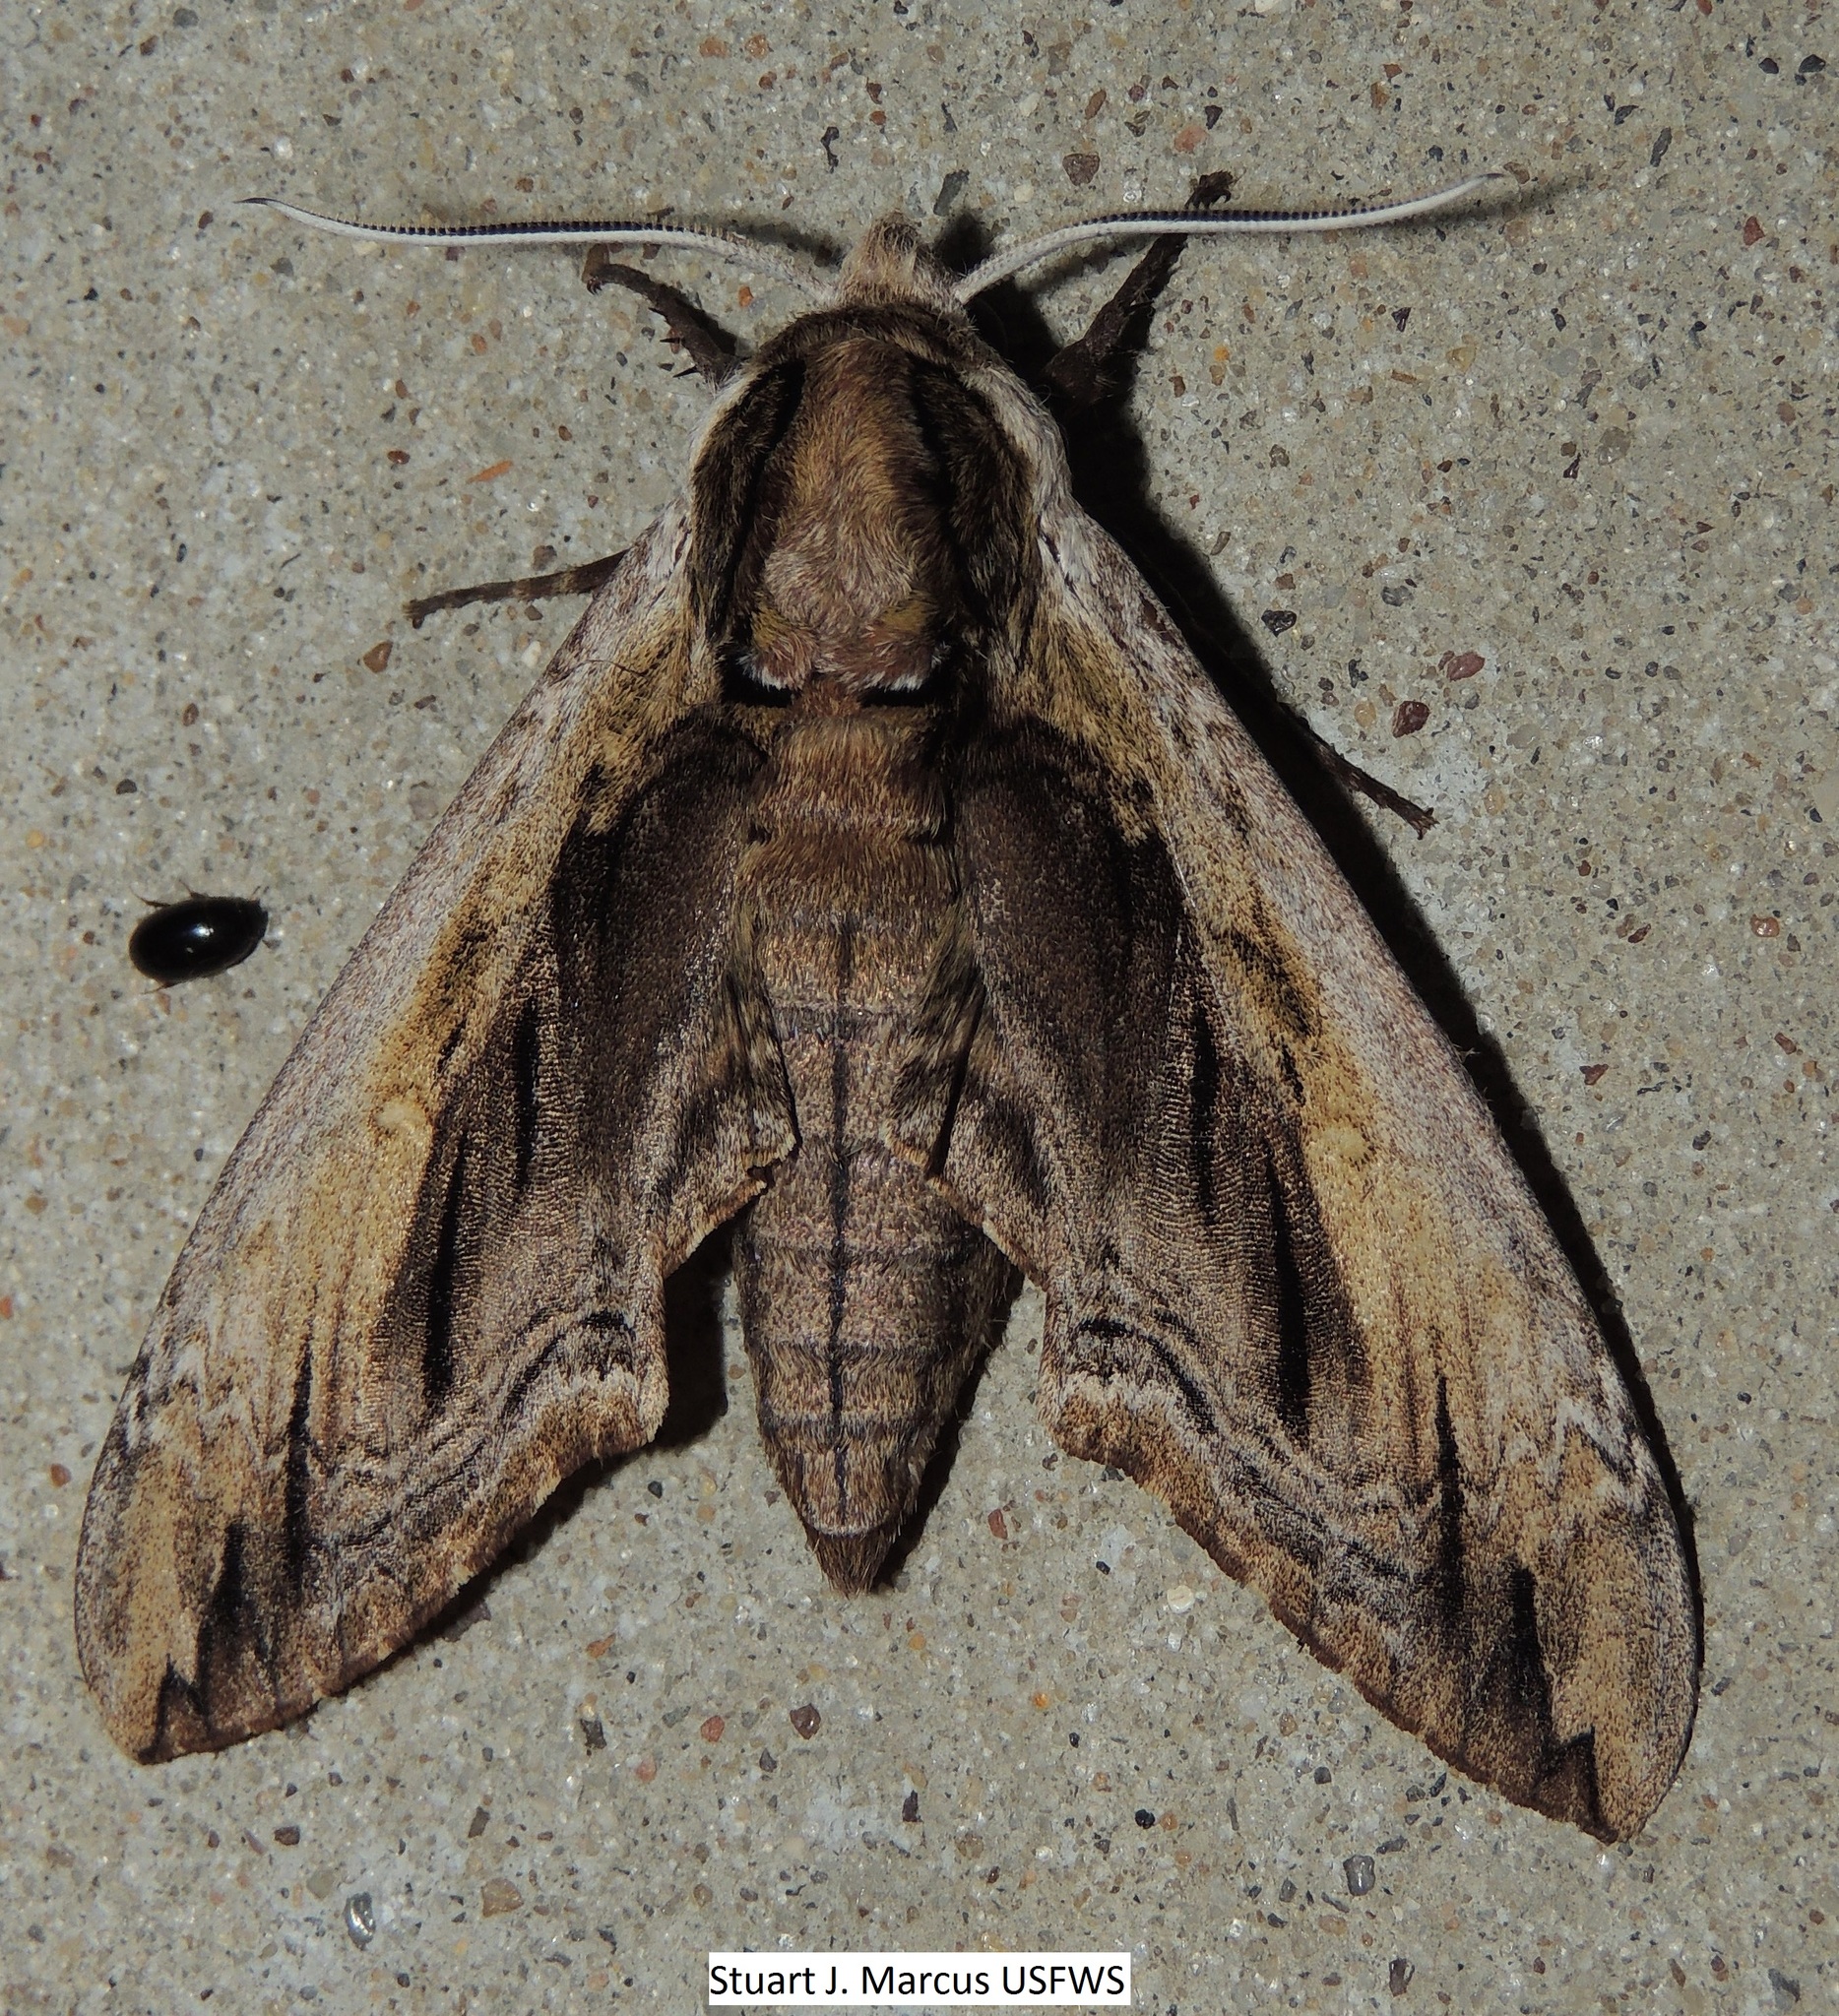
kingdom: Animalia
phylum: Arthropoda
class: Insecta
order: Lepidoptera
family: Sphingidae
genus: Ceratomia
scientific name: Ceratomia amyntor
